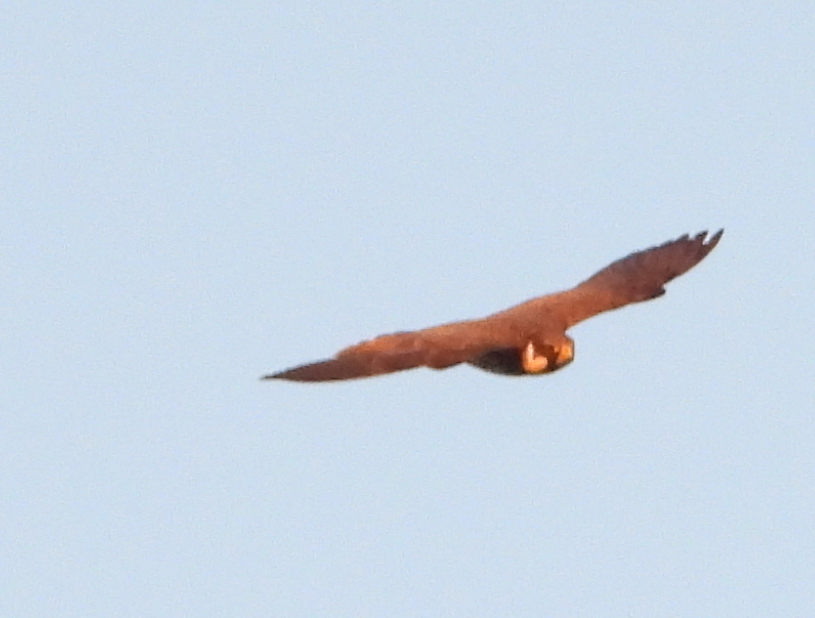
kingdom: Animalia
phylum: Chordata
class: Aves
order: Falconiformes
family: Falconidae
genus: Falco
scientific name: Falco subbuteo
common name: Eurasian hobby
